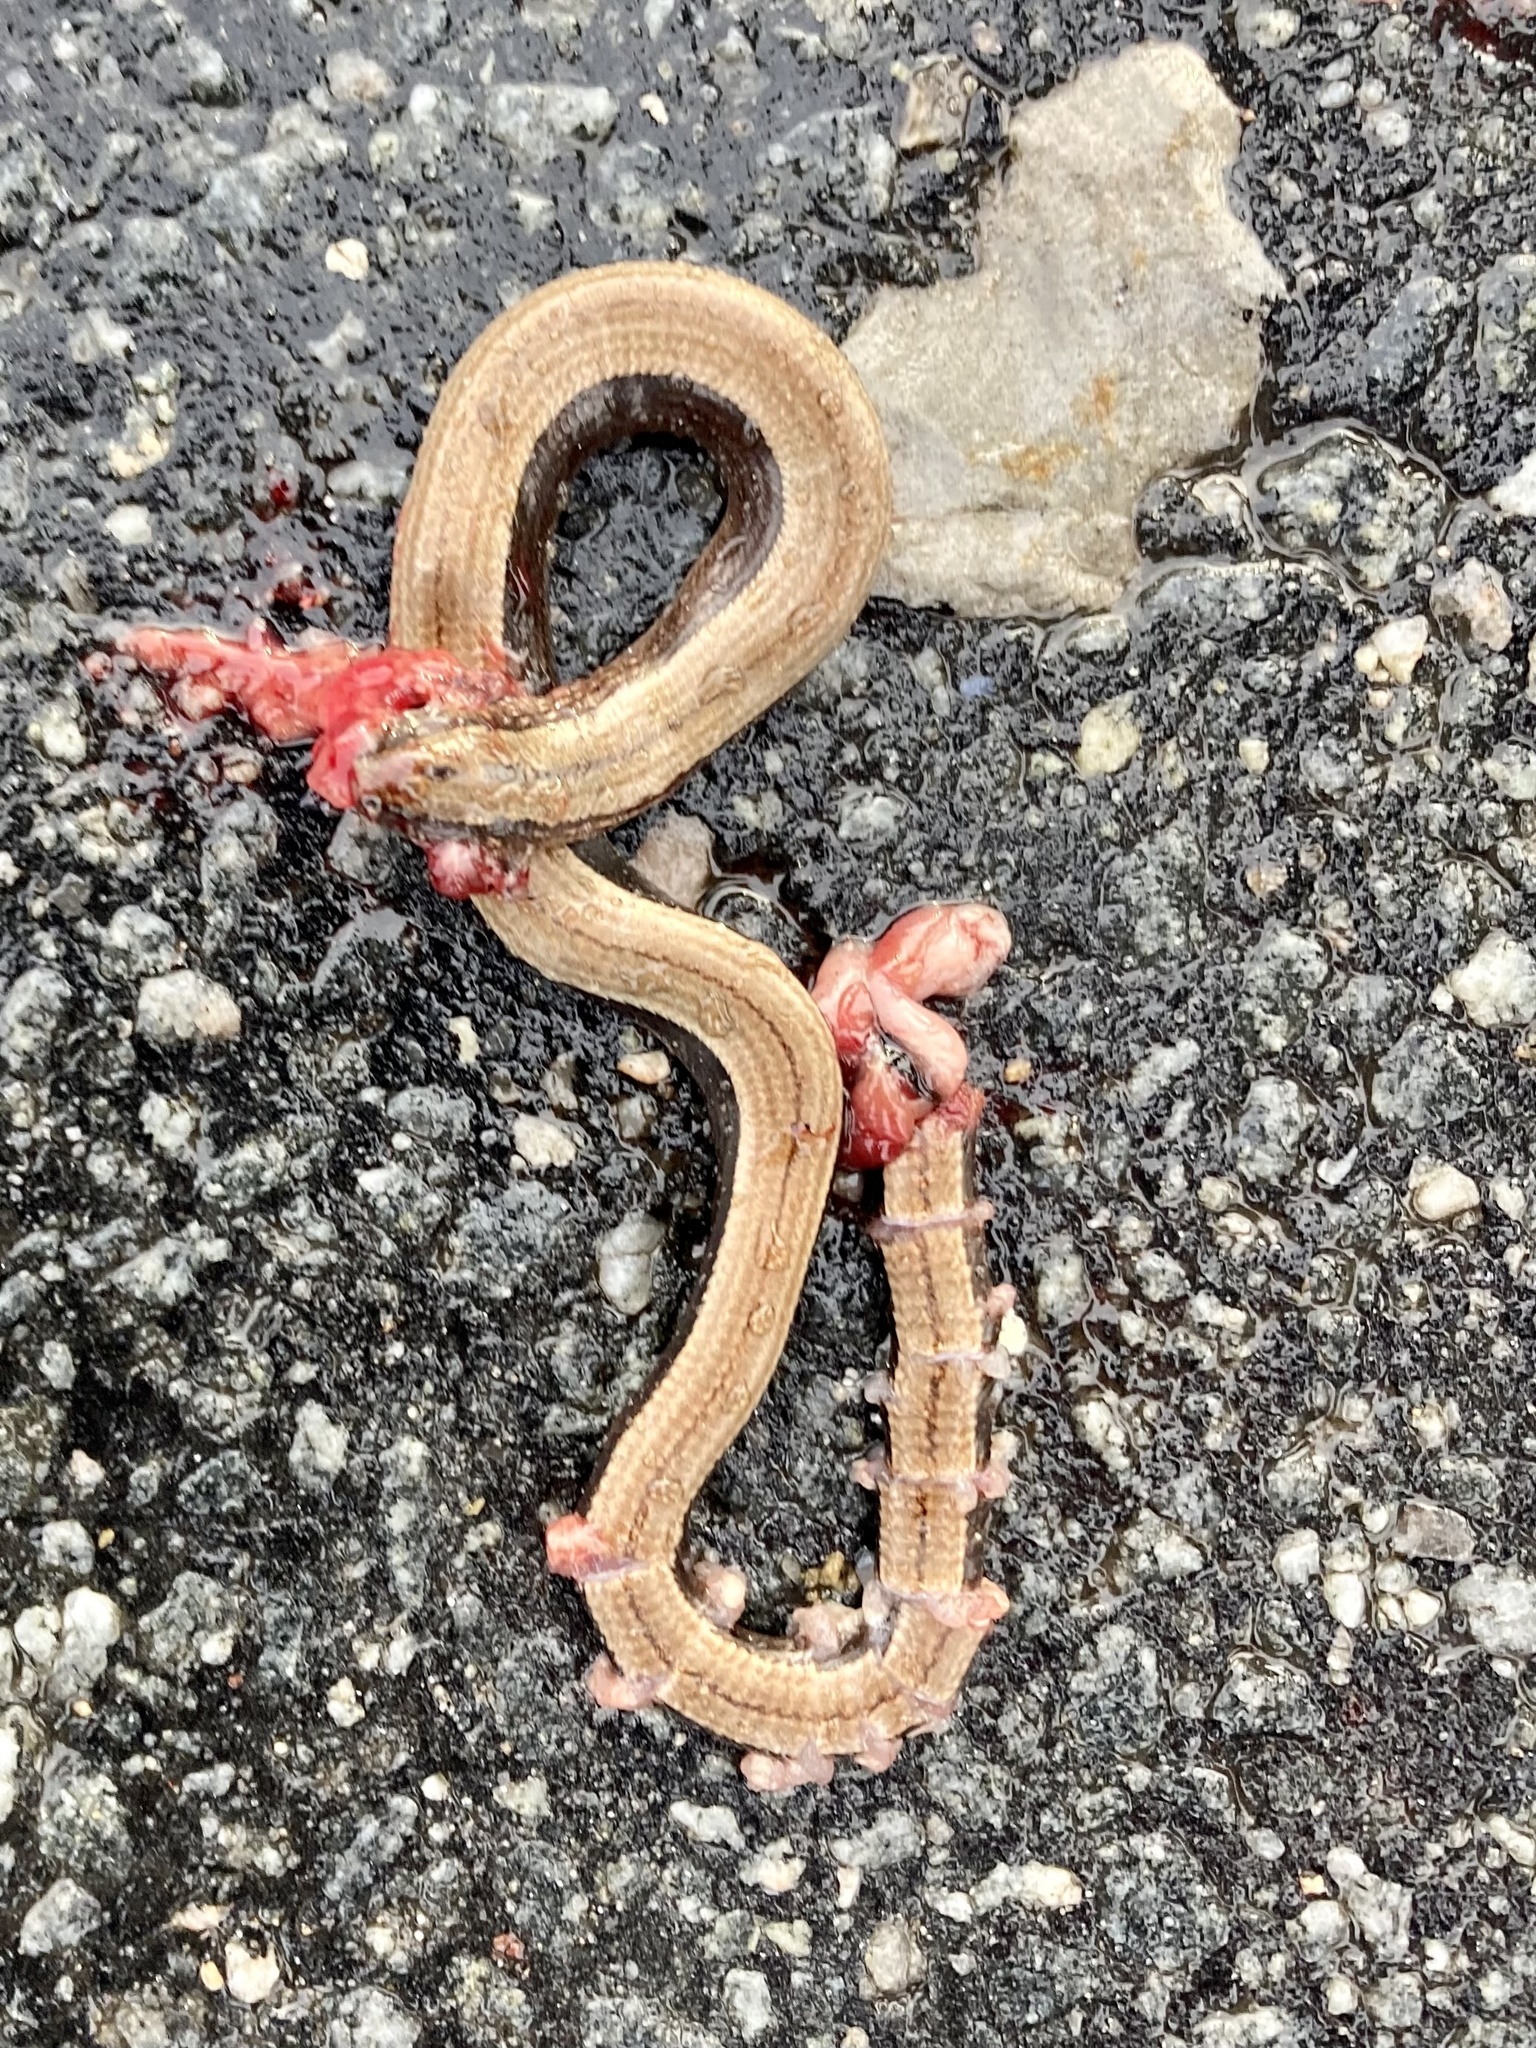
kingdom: Animalia
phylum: Chordata
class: Squamata
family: Anguidae
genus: Anguis
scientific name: Anguis fragilis
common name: Slow worm
